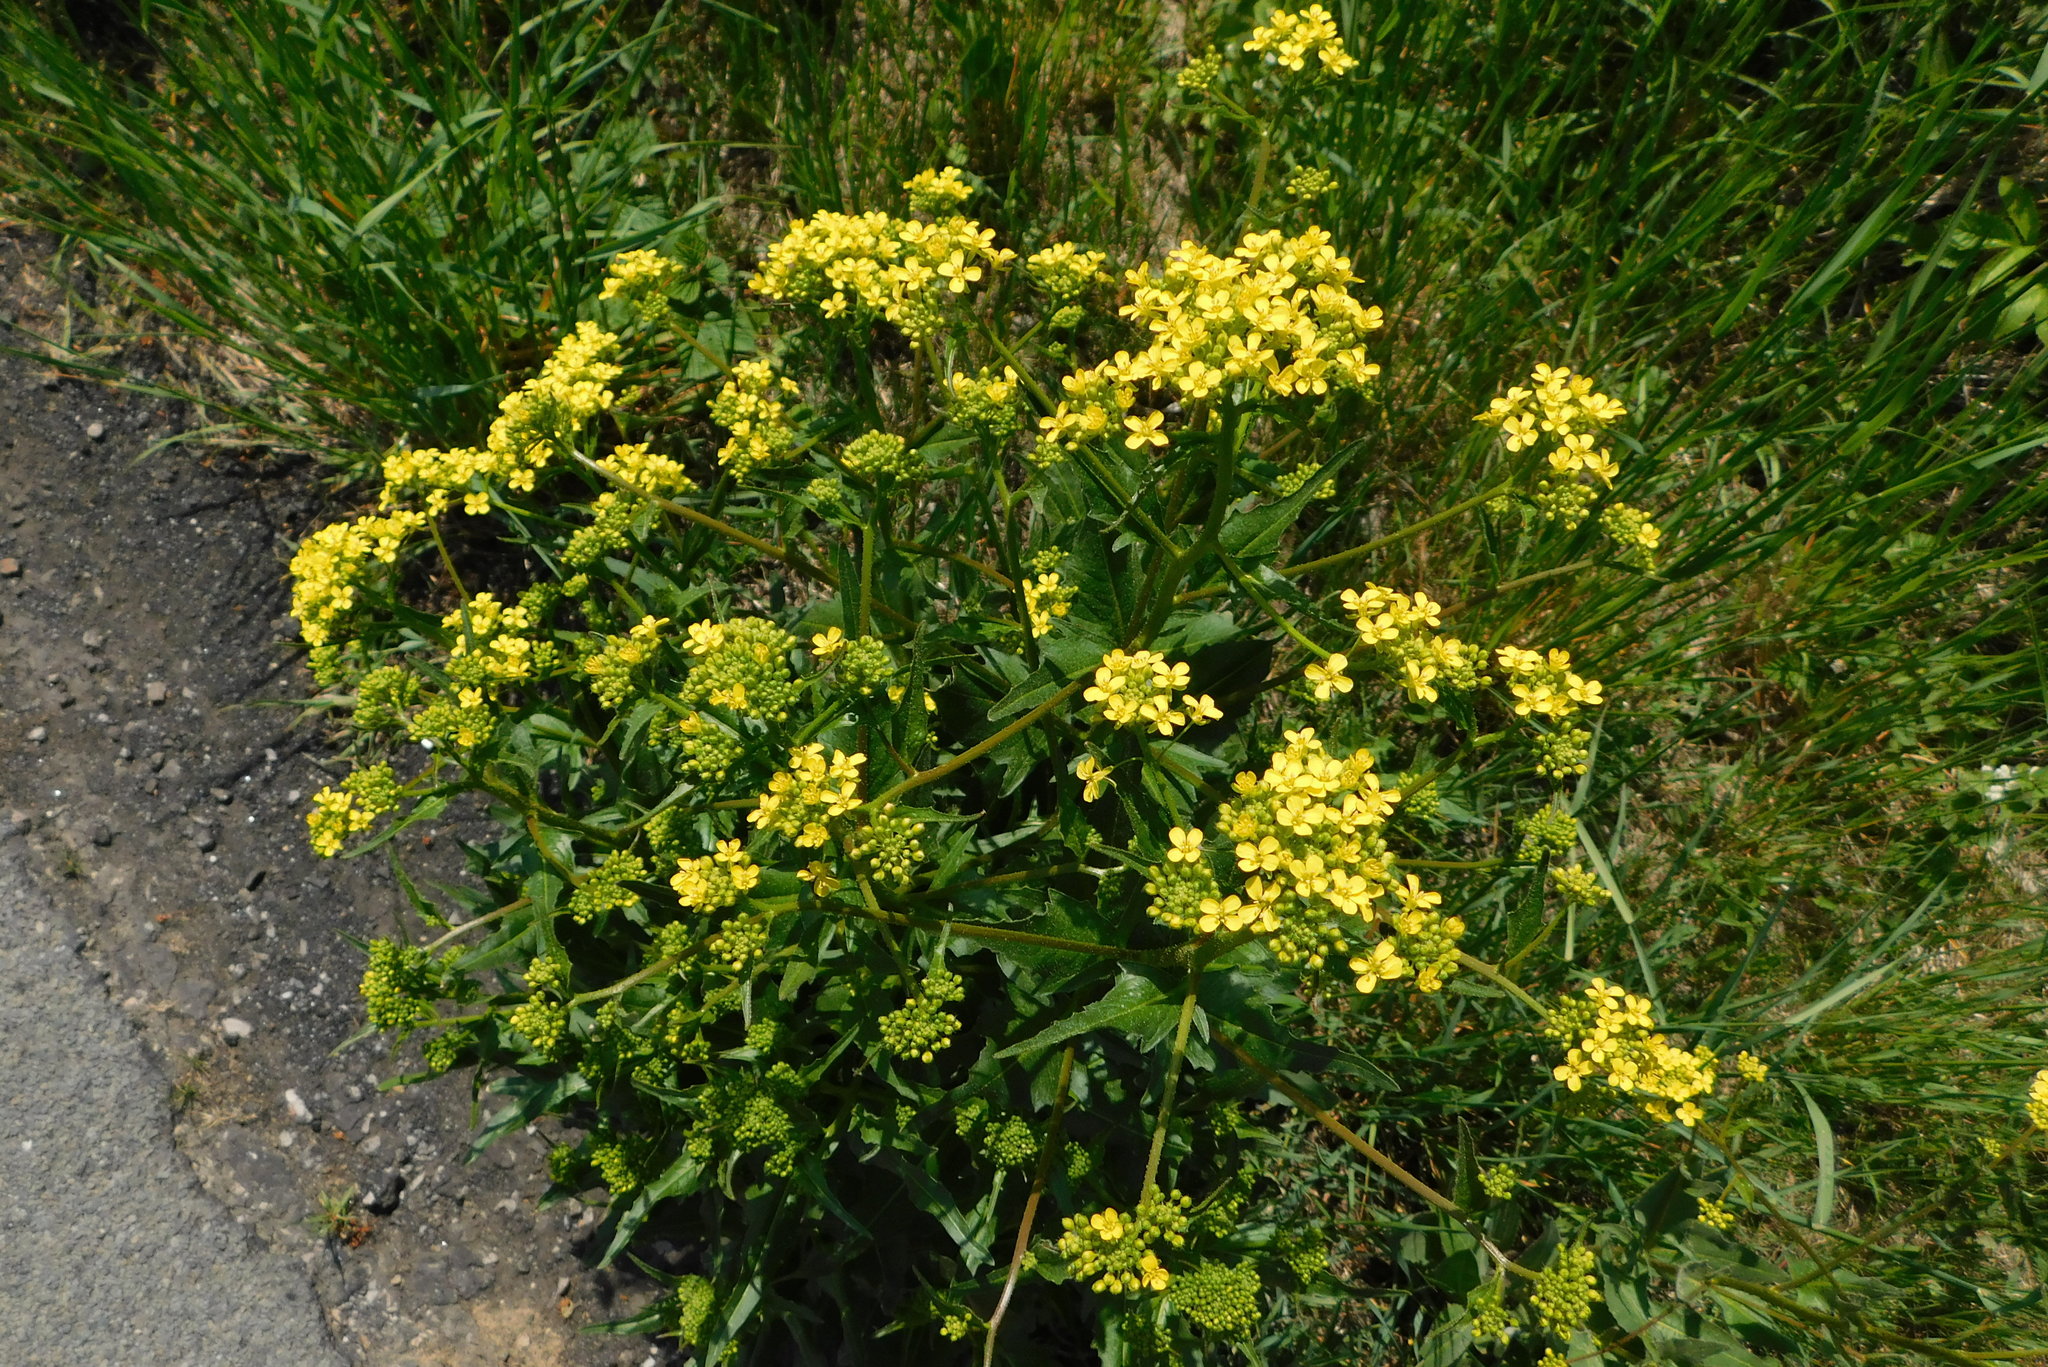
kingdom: Plantae
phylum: Tracheophyta
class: Magnoliopsida
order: Brassicales
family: Brassicaceae
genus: Bunias
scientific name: Bunias orientalis
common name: Warty-cabbage
